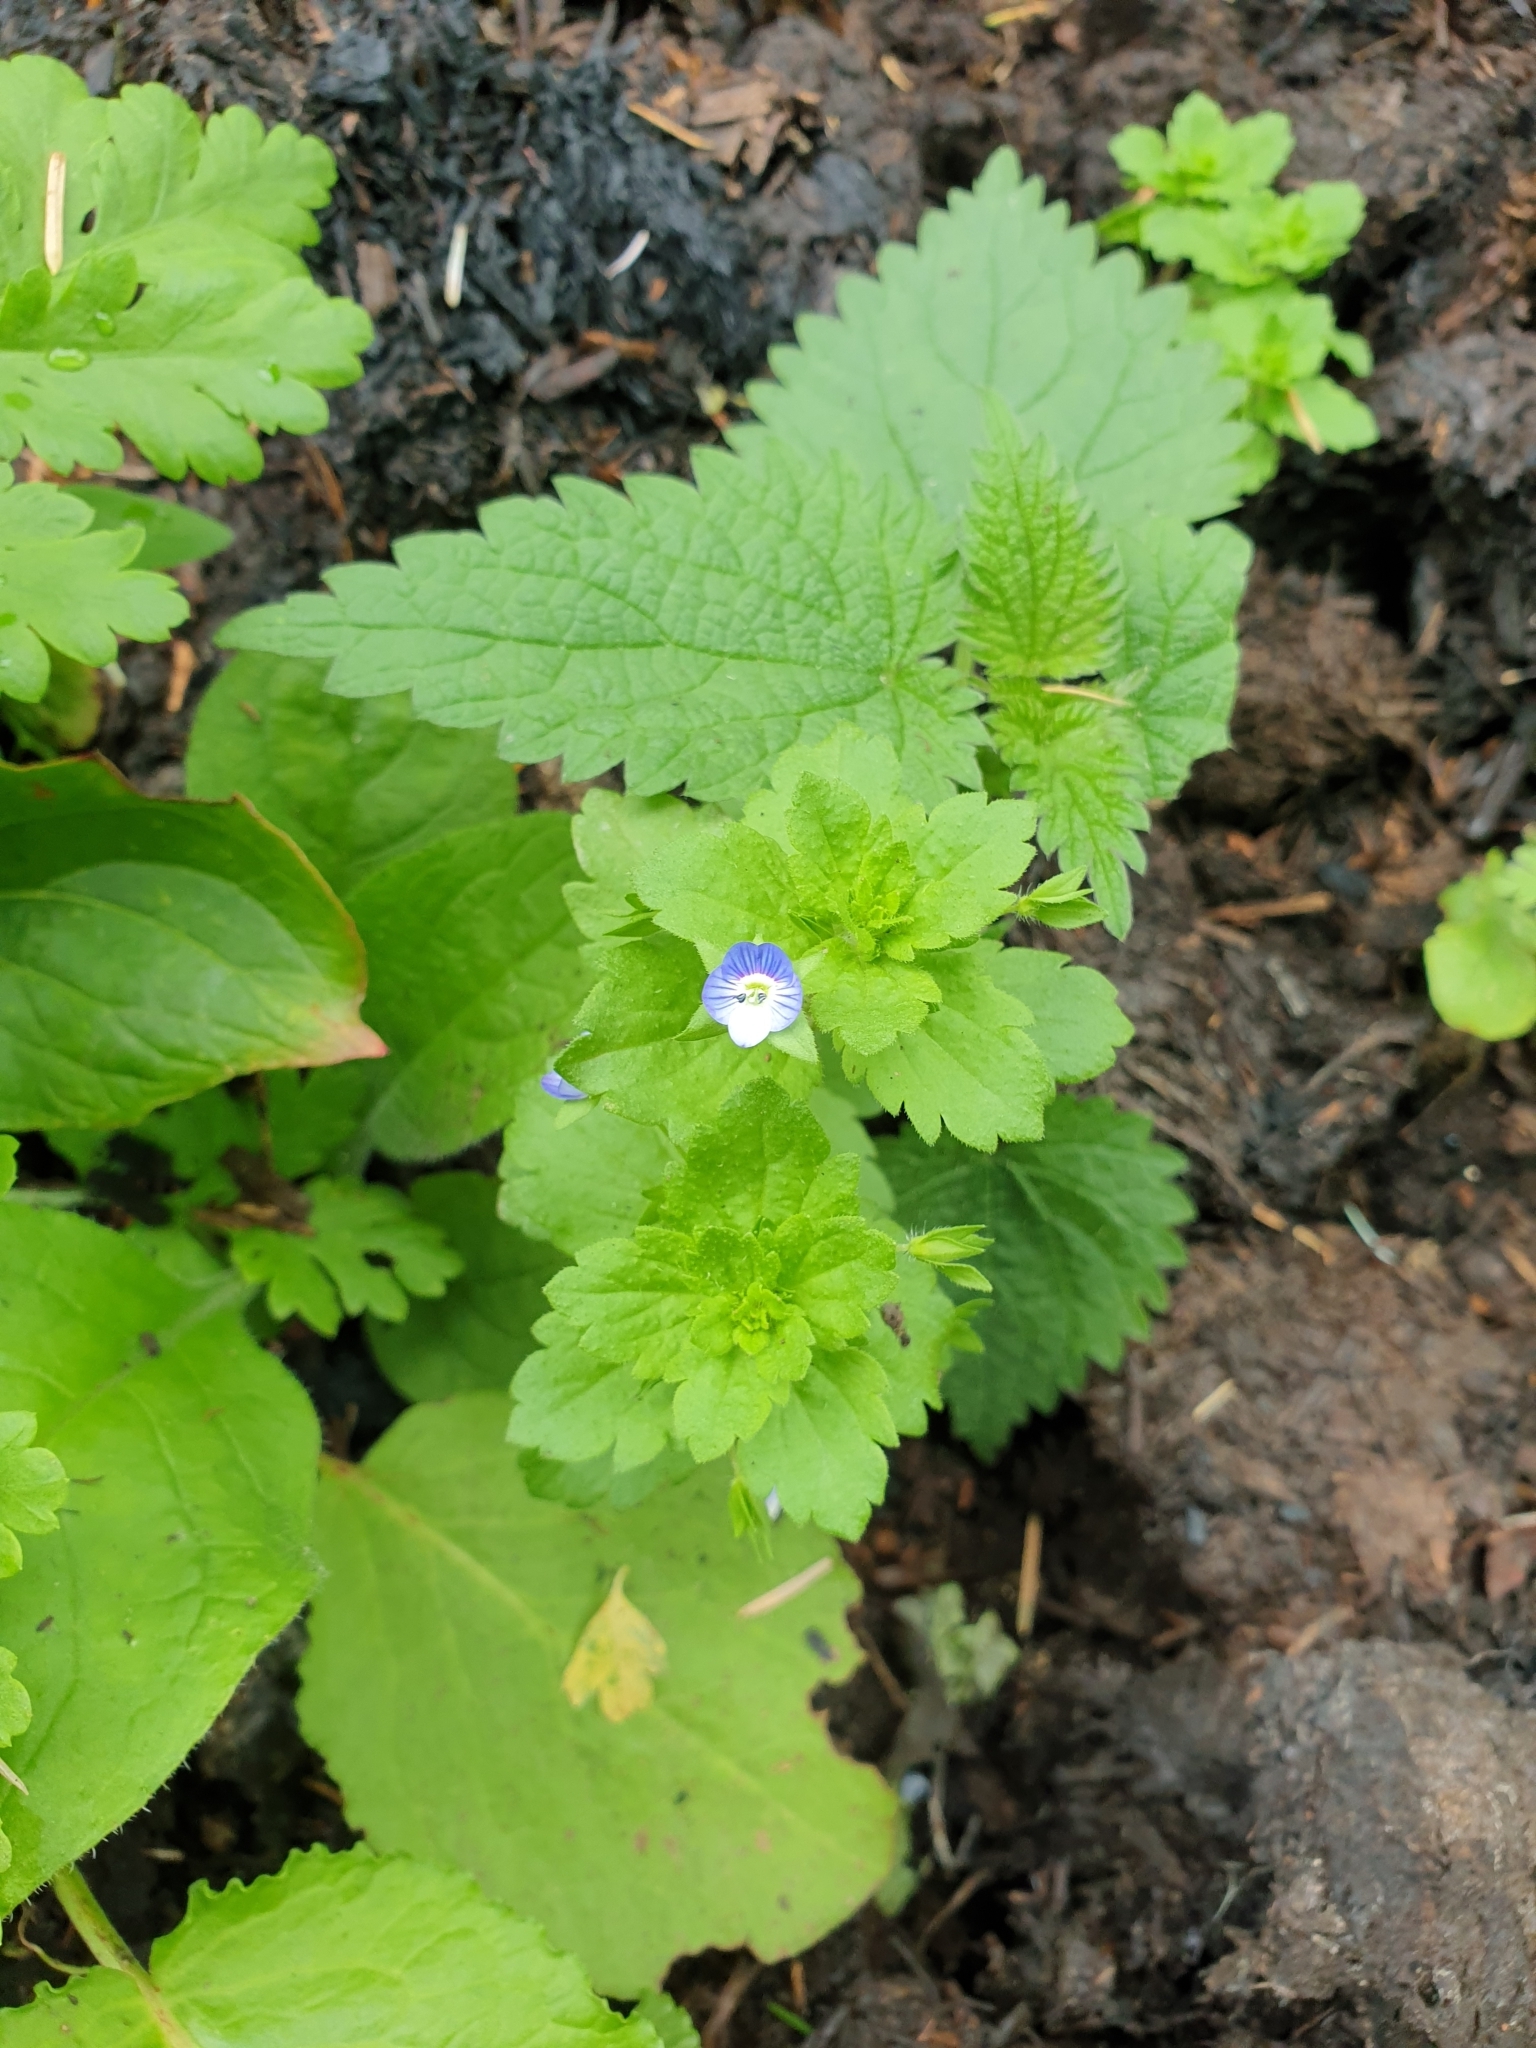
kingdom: Plantae
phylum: Tracheophyta
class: Magnoliopsida
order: Lamiales
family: Plantaginaceae
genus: Veronica
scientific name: Veronica persica
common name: Common field-speedwell
